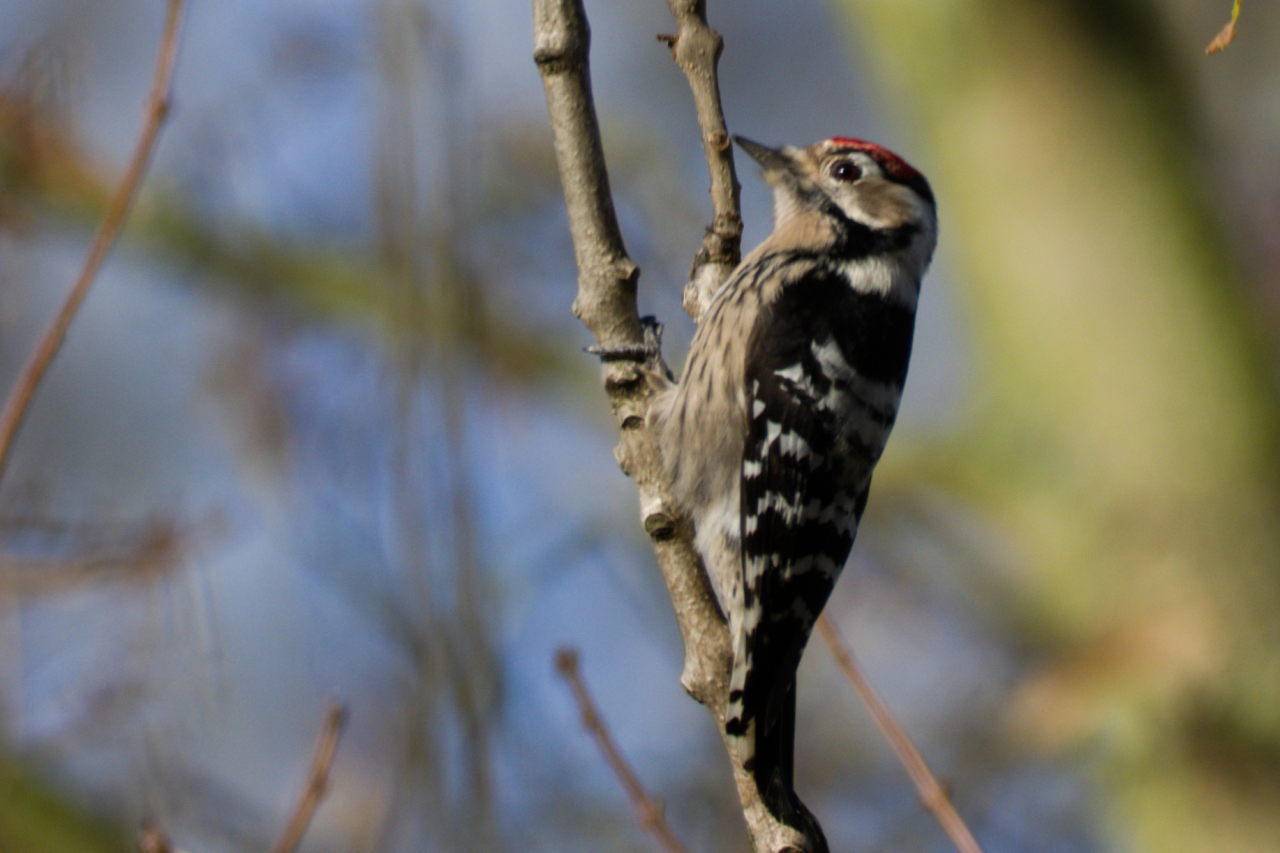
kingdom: Animalia
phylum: Chordata
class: Aves
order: Piciformes
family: Picidae
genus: Dryobates
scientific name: Dryobates minor
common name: Lesser spotted woodpecker
